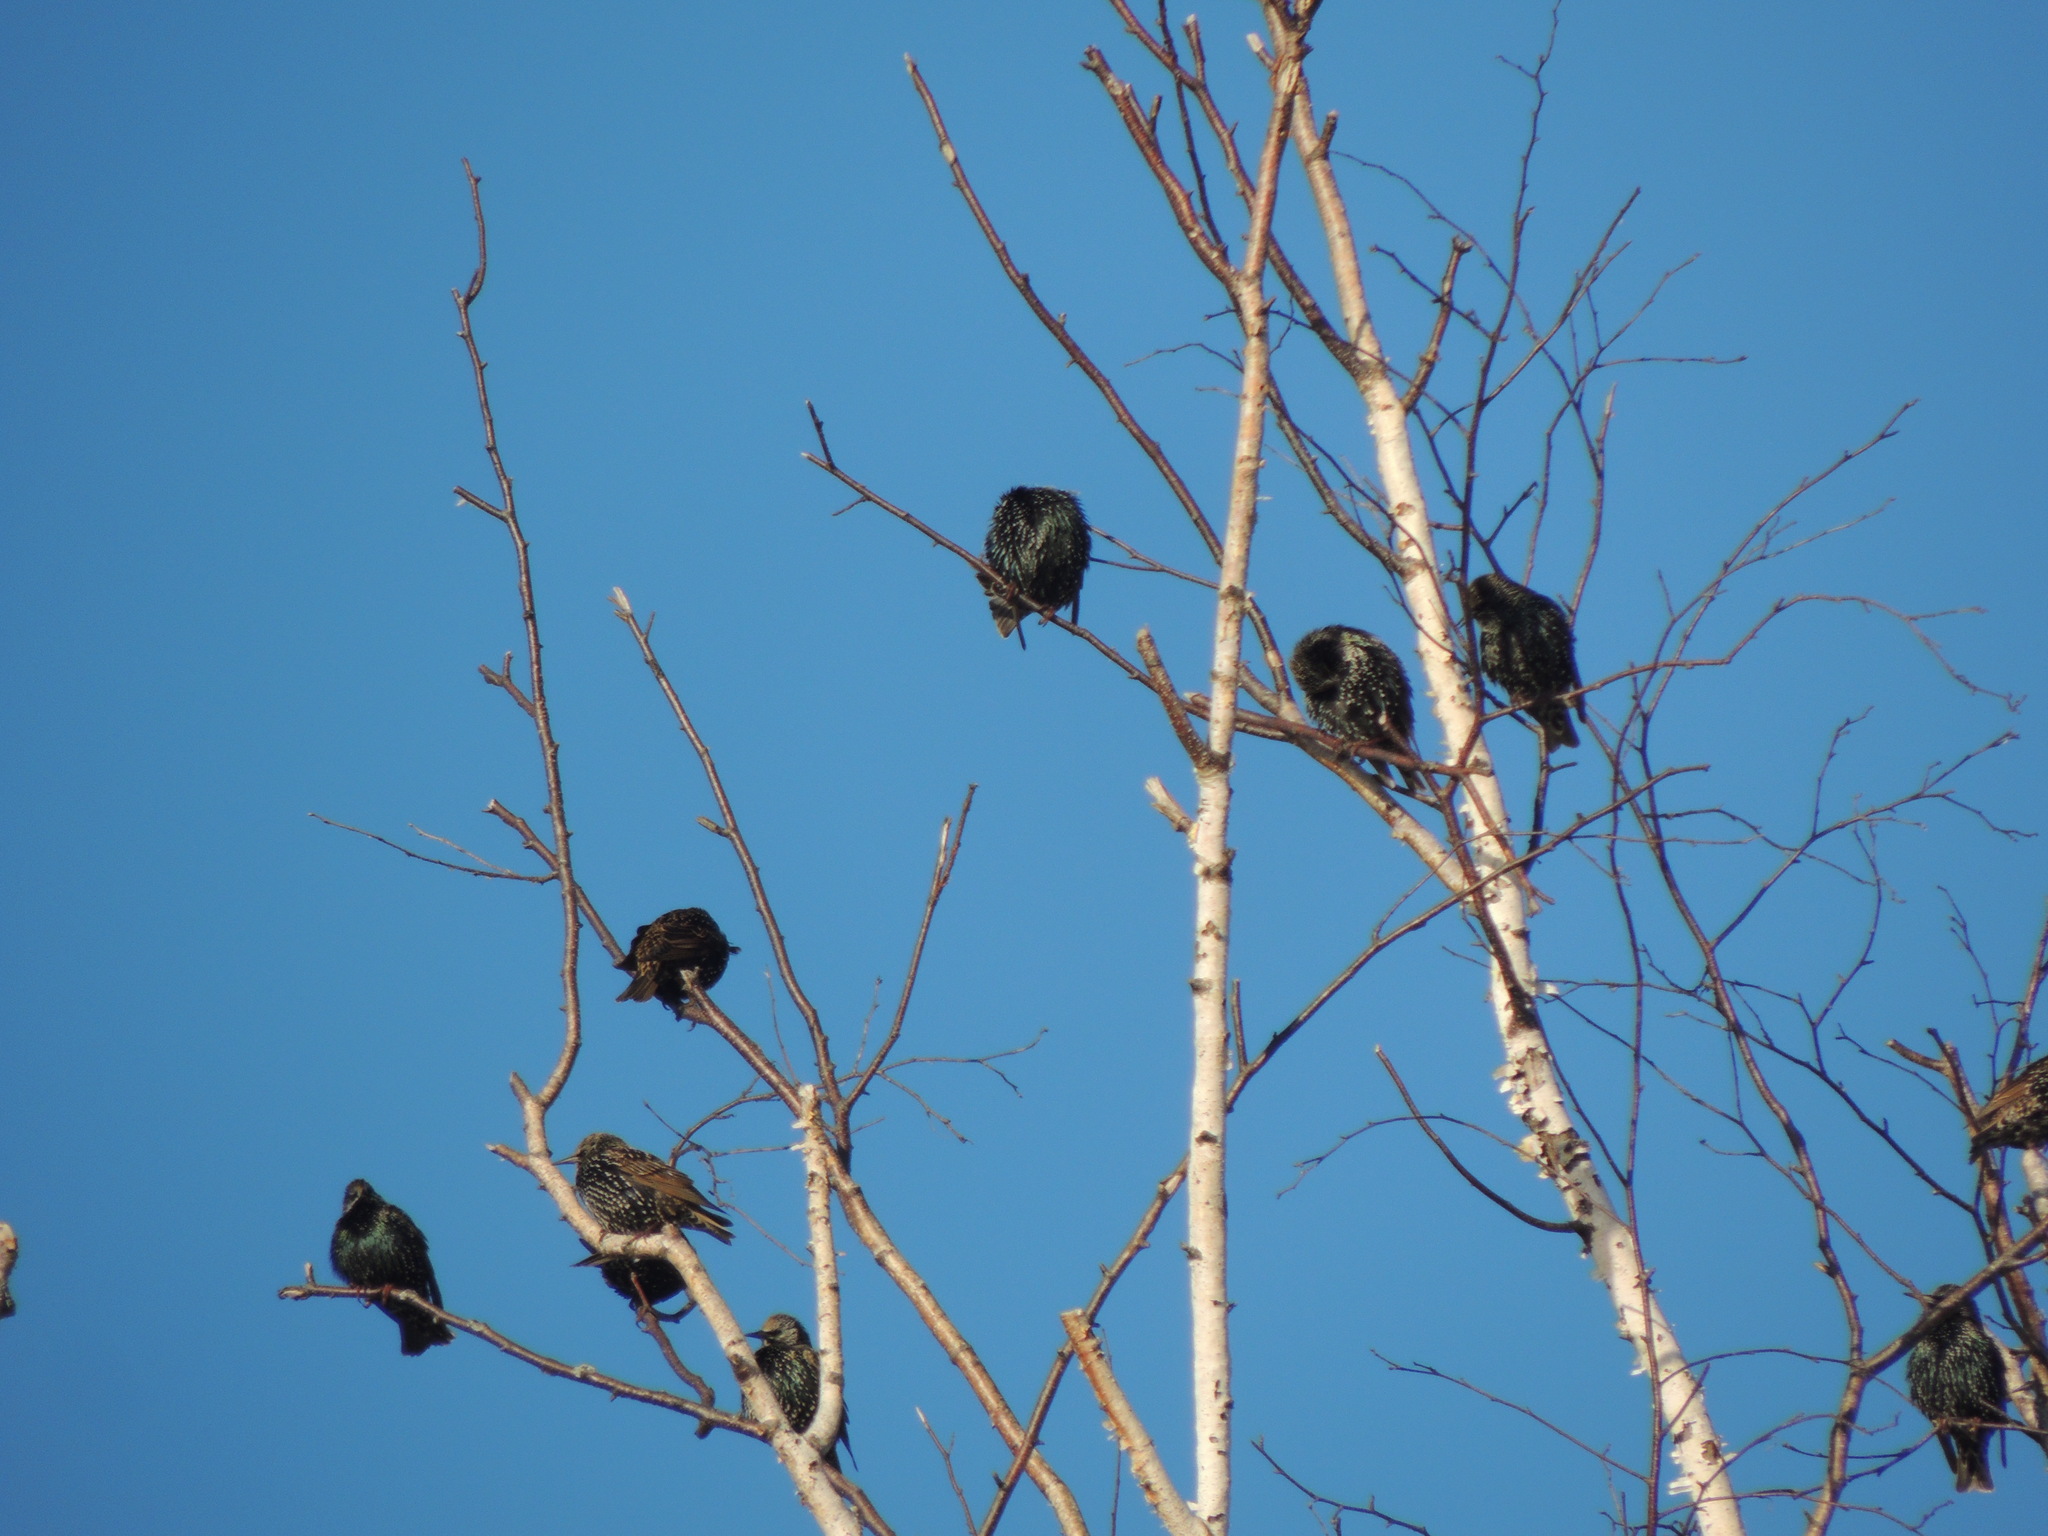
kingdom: Animalia
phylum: Chordata
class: Aves
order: Passeriformes
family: Sturnidae
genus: Sturnus
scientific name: Sturnus vulgaris
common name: Common starling
